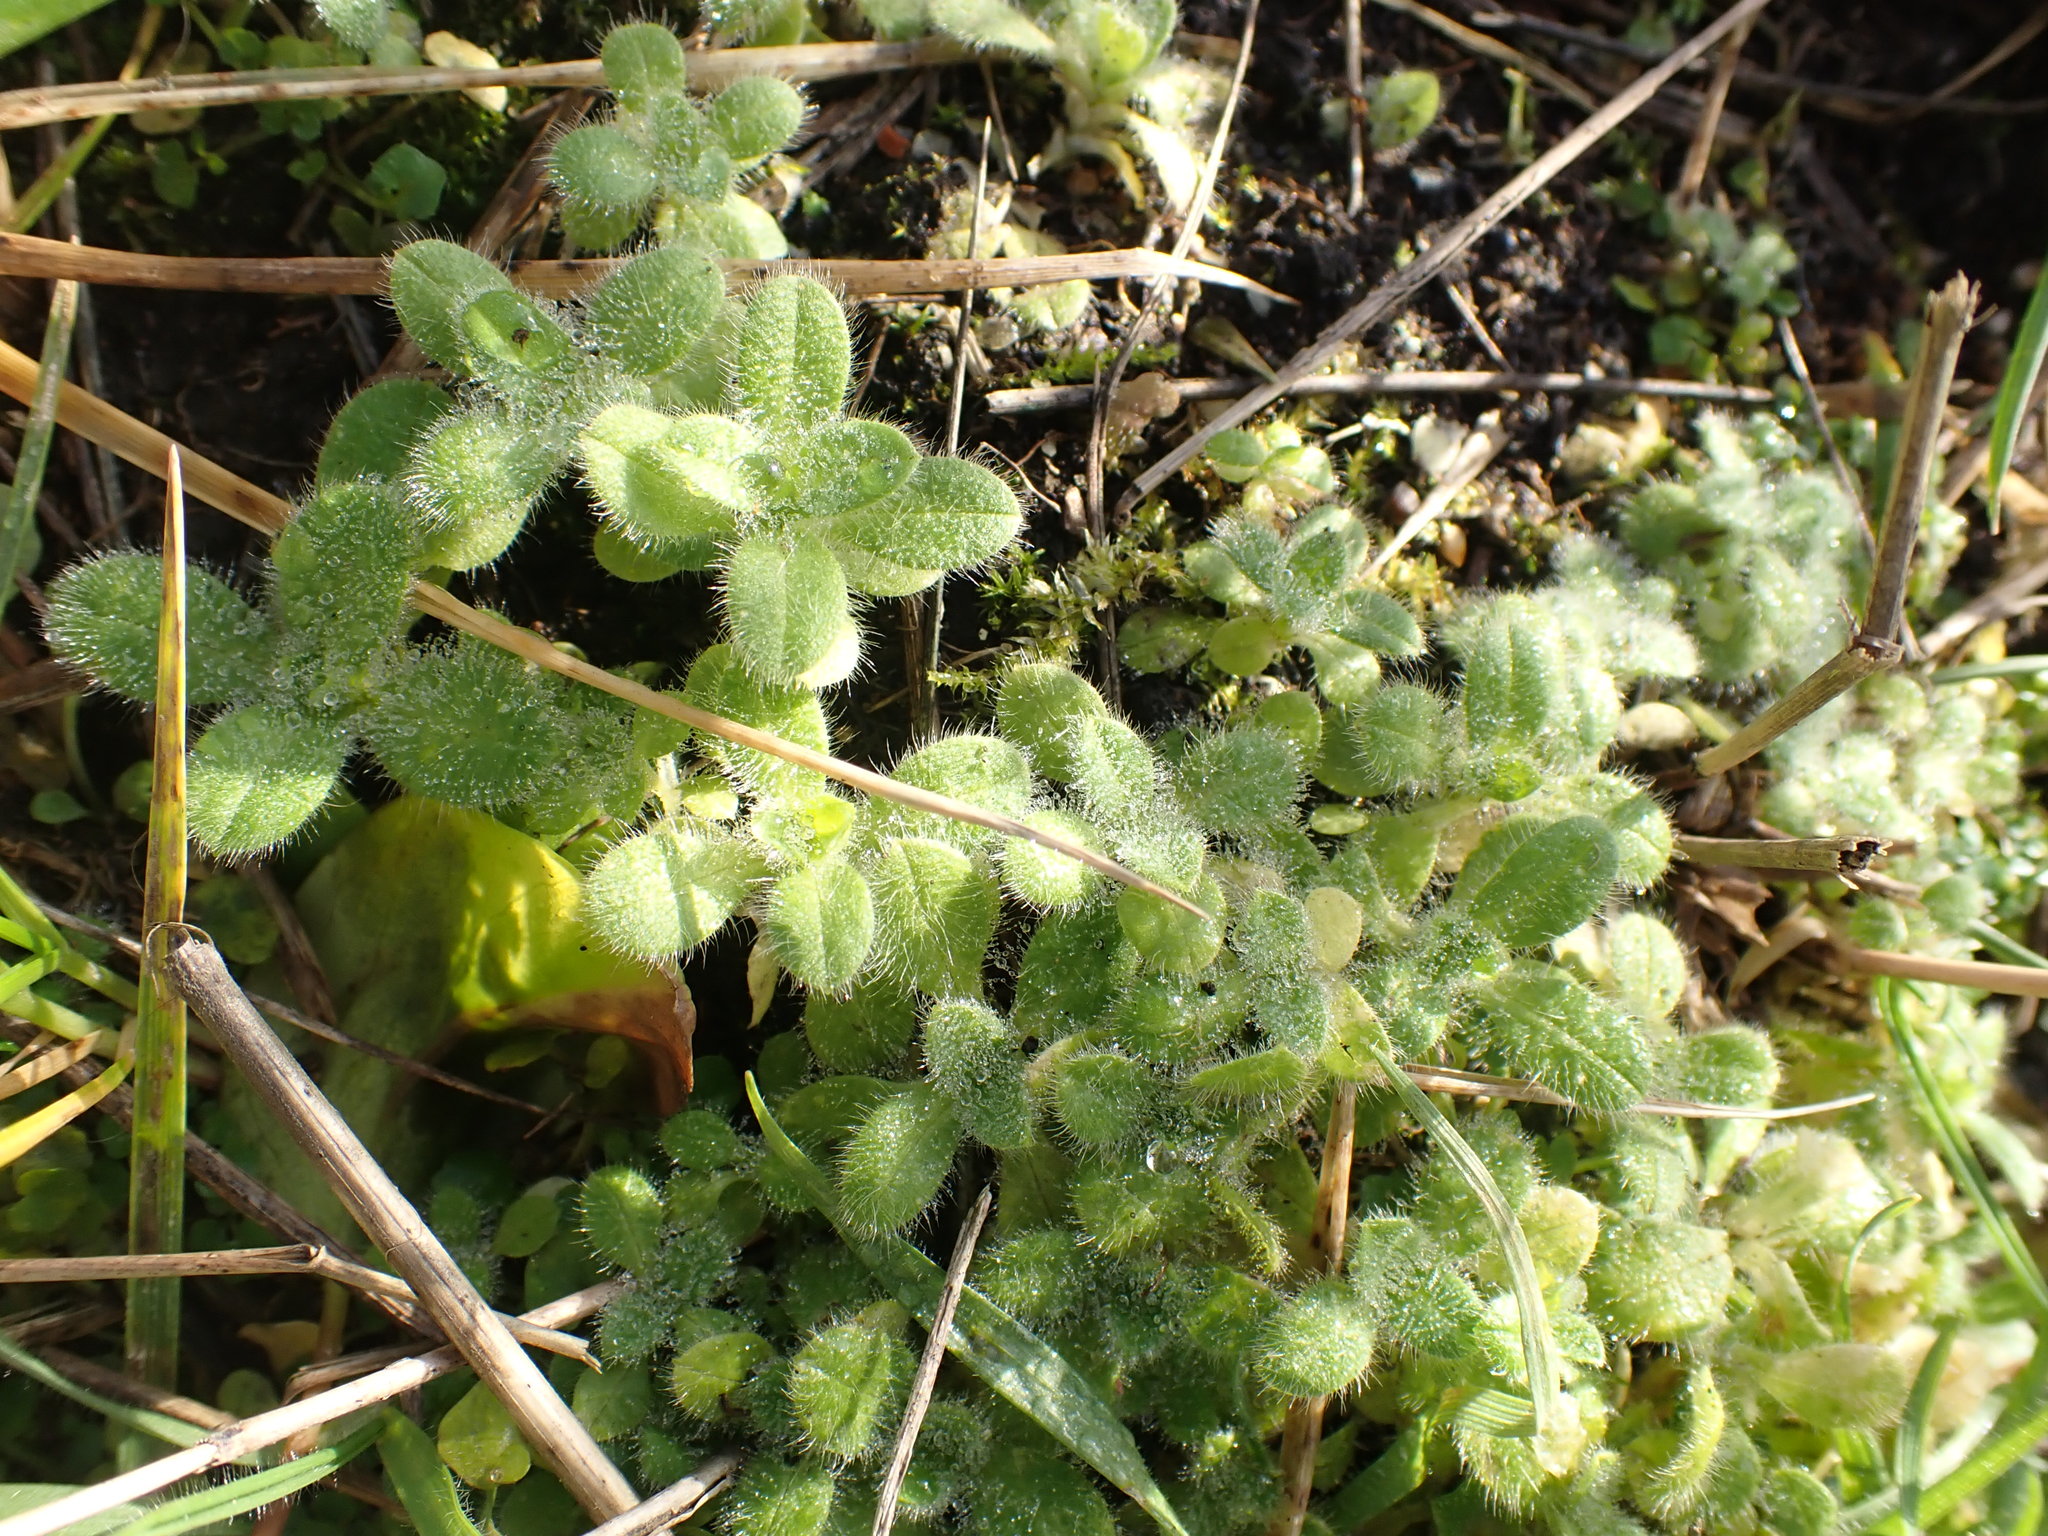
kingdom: Plantae
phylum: Tracheophyta
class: Magnoliopsida
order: Caryophyllales
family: Caryophyllaceae
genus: Cerastium
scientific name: Cerastium glomeratum
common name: Sticky chickweed
